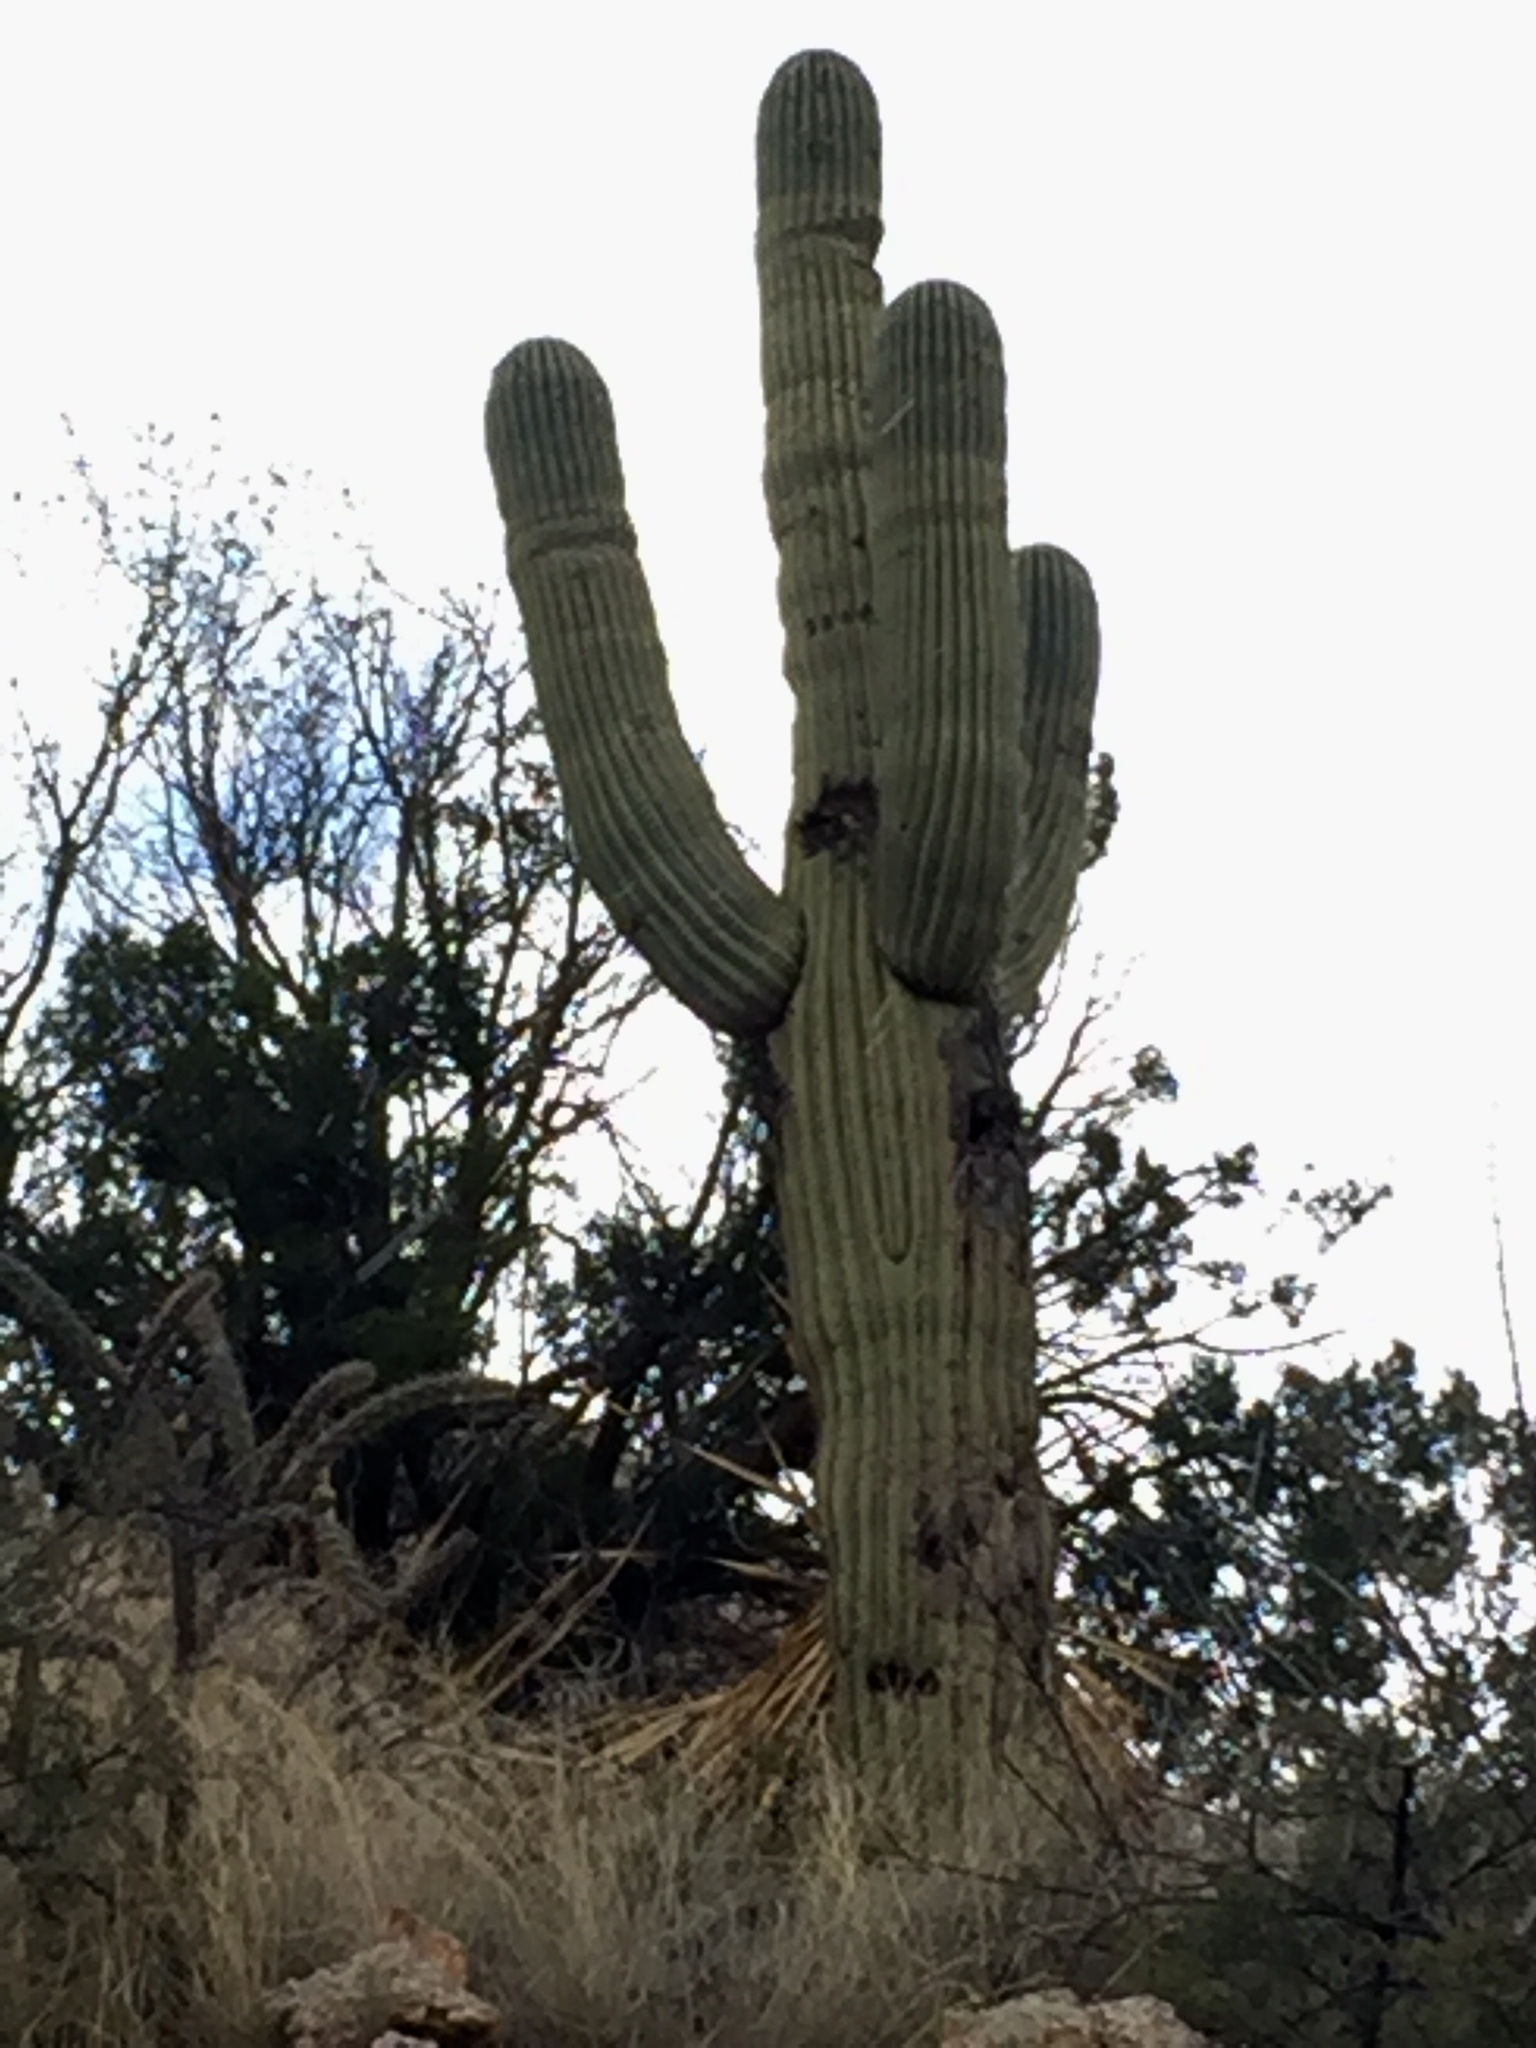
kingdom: Plantae
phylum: Tracheophyta
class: Magnoliopsida
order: Caryophyllales
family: Cactaceae
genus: Carnegiea
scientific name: Carnegiea gigantea
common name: Saguaro
